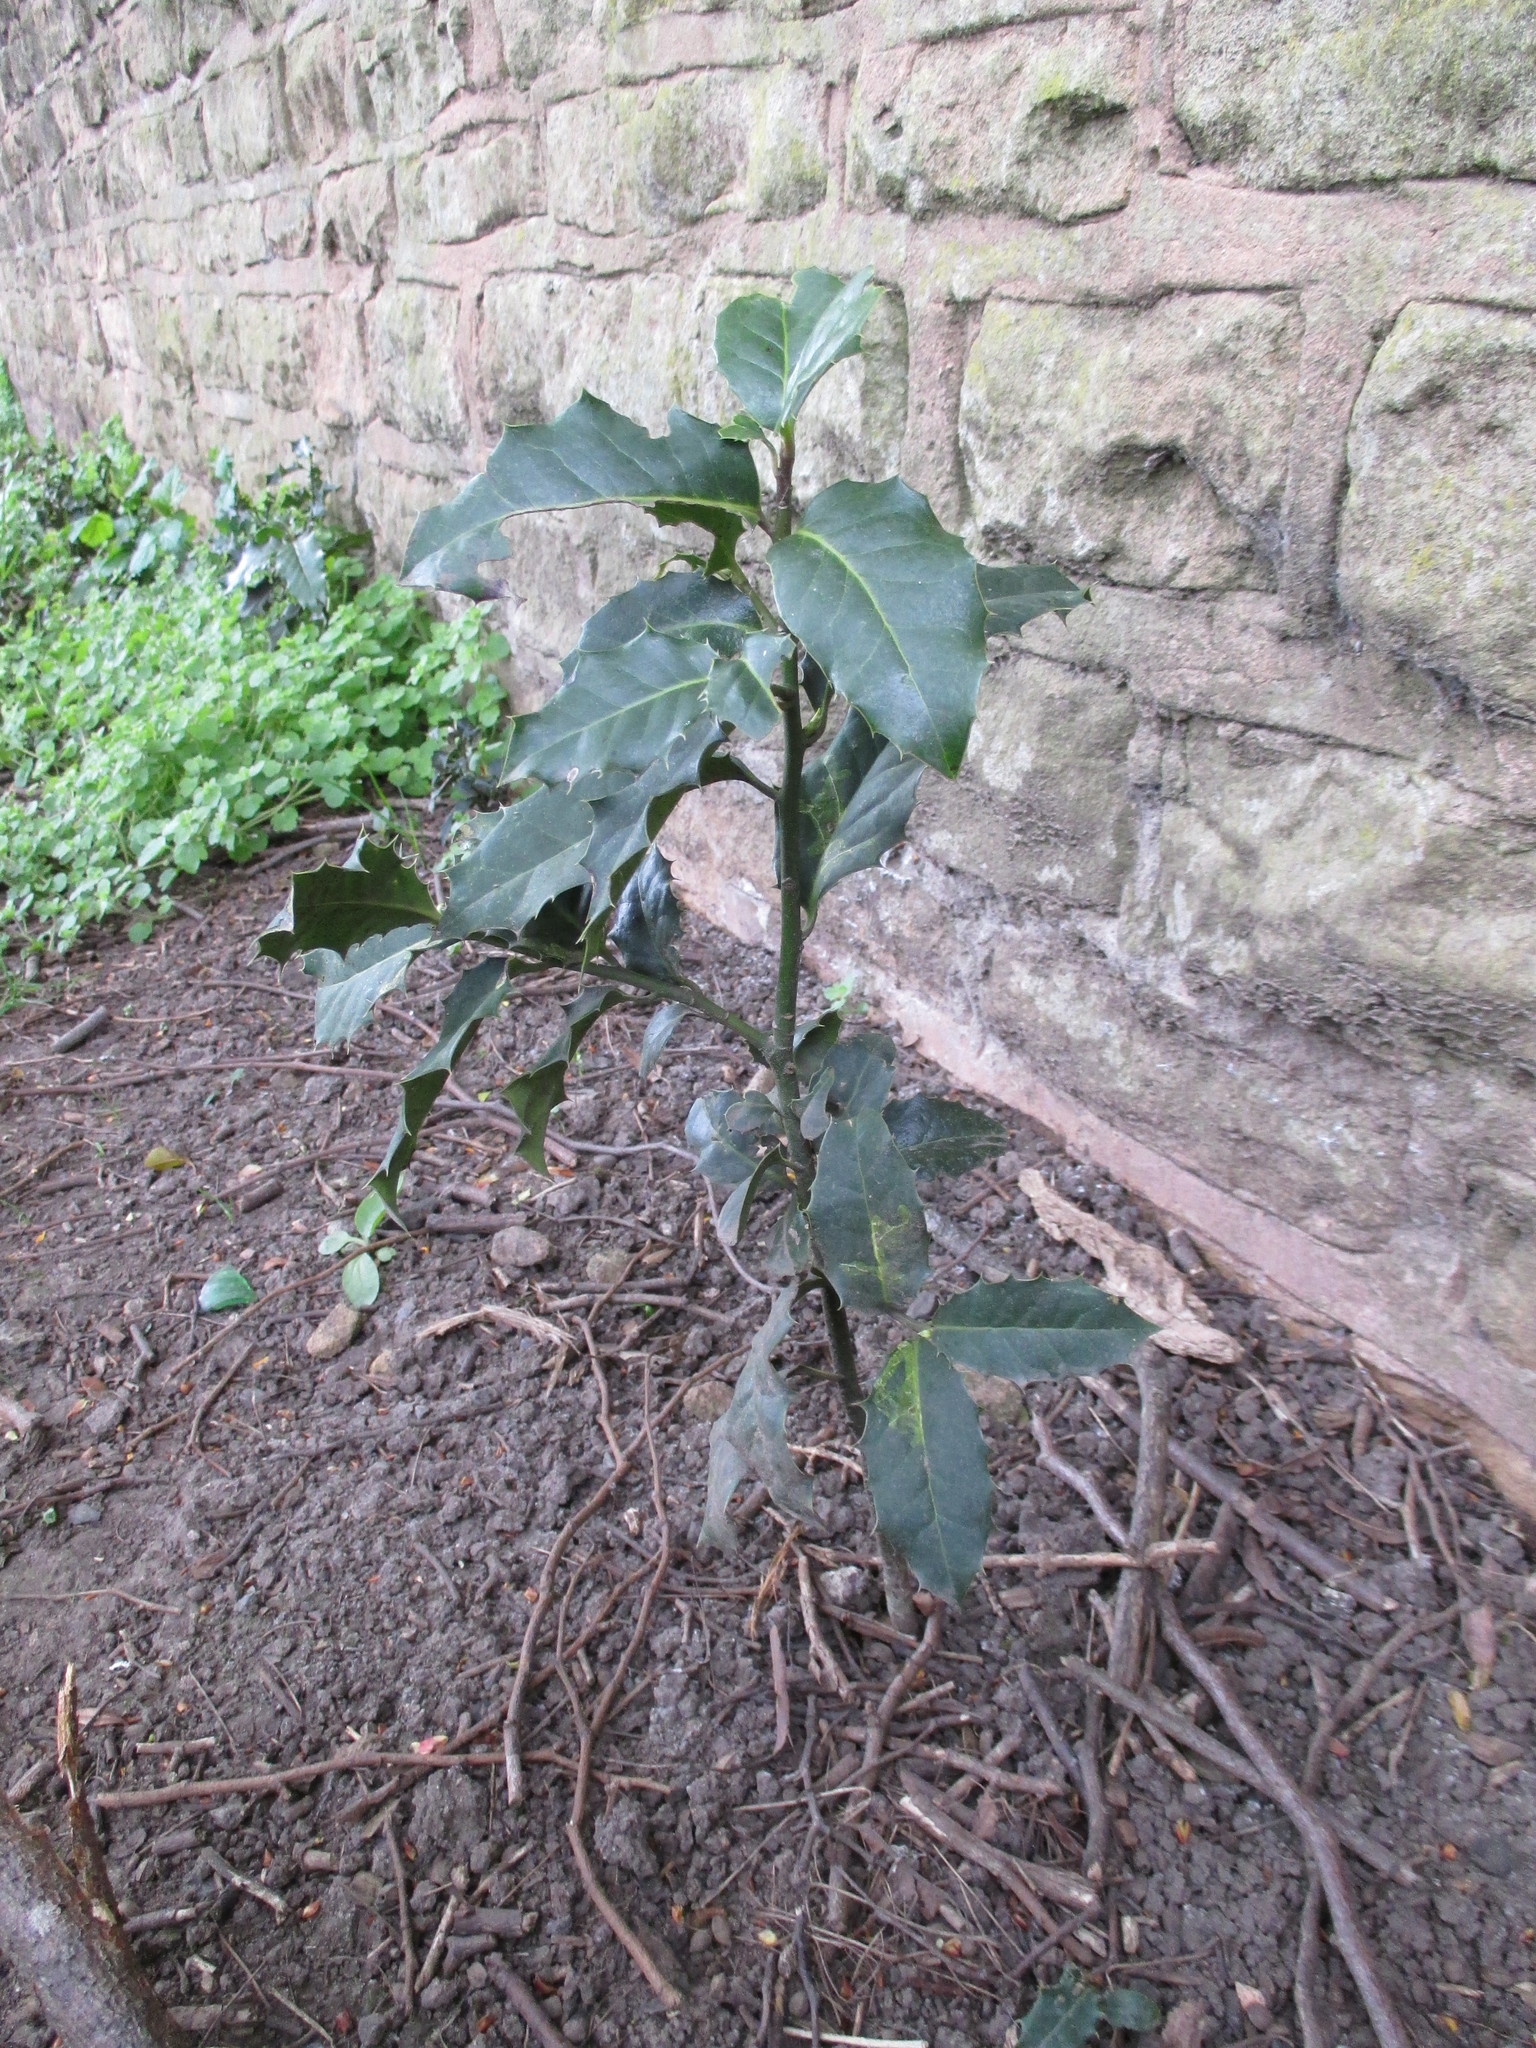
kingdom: Plantae
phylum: Tracheophyta
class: Magnoliopsida
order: Aquifoliales
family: Aquifoliaceae
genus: Ilex
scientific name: Ilex aquifolium
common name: English holly
